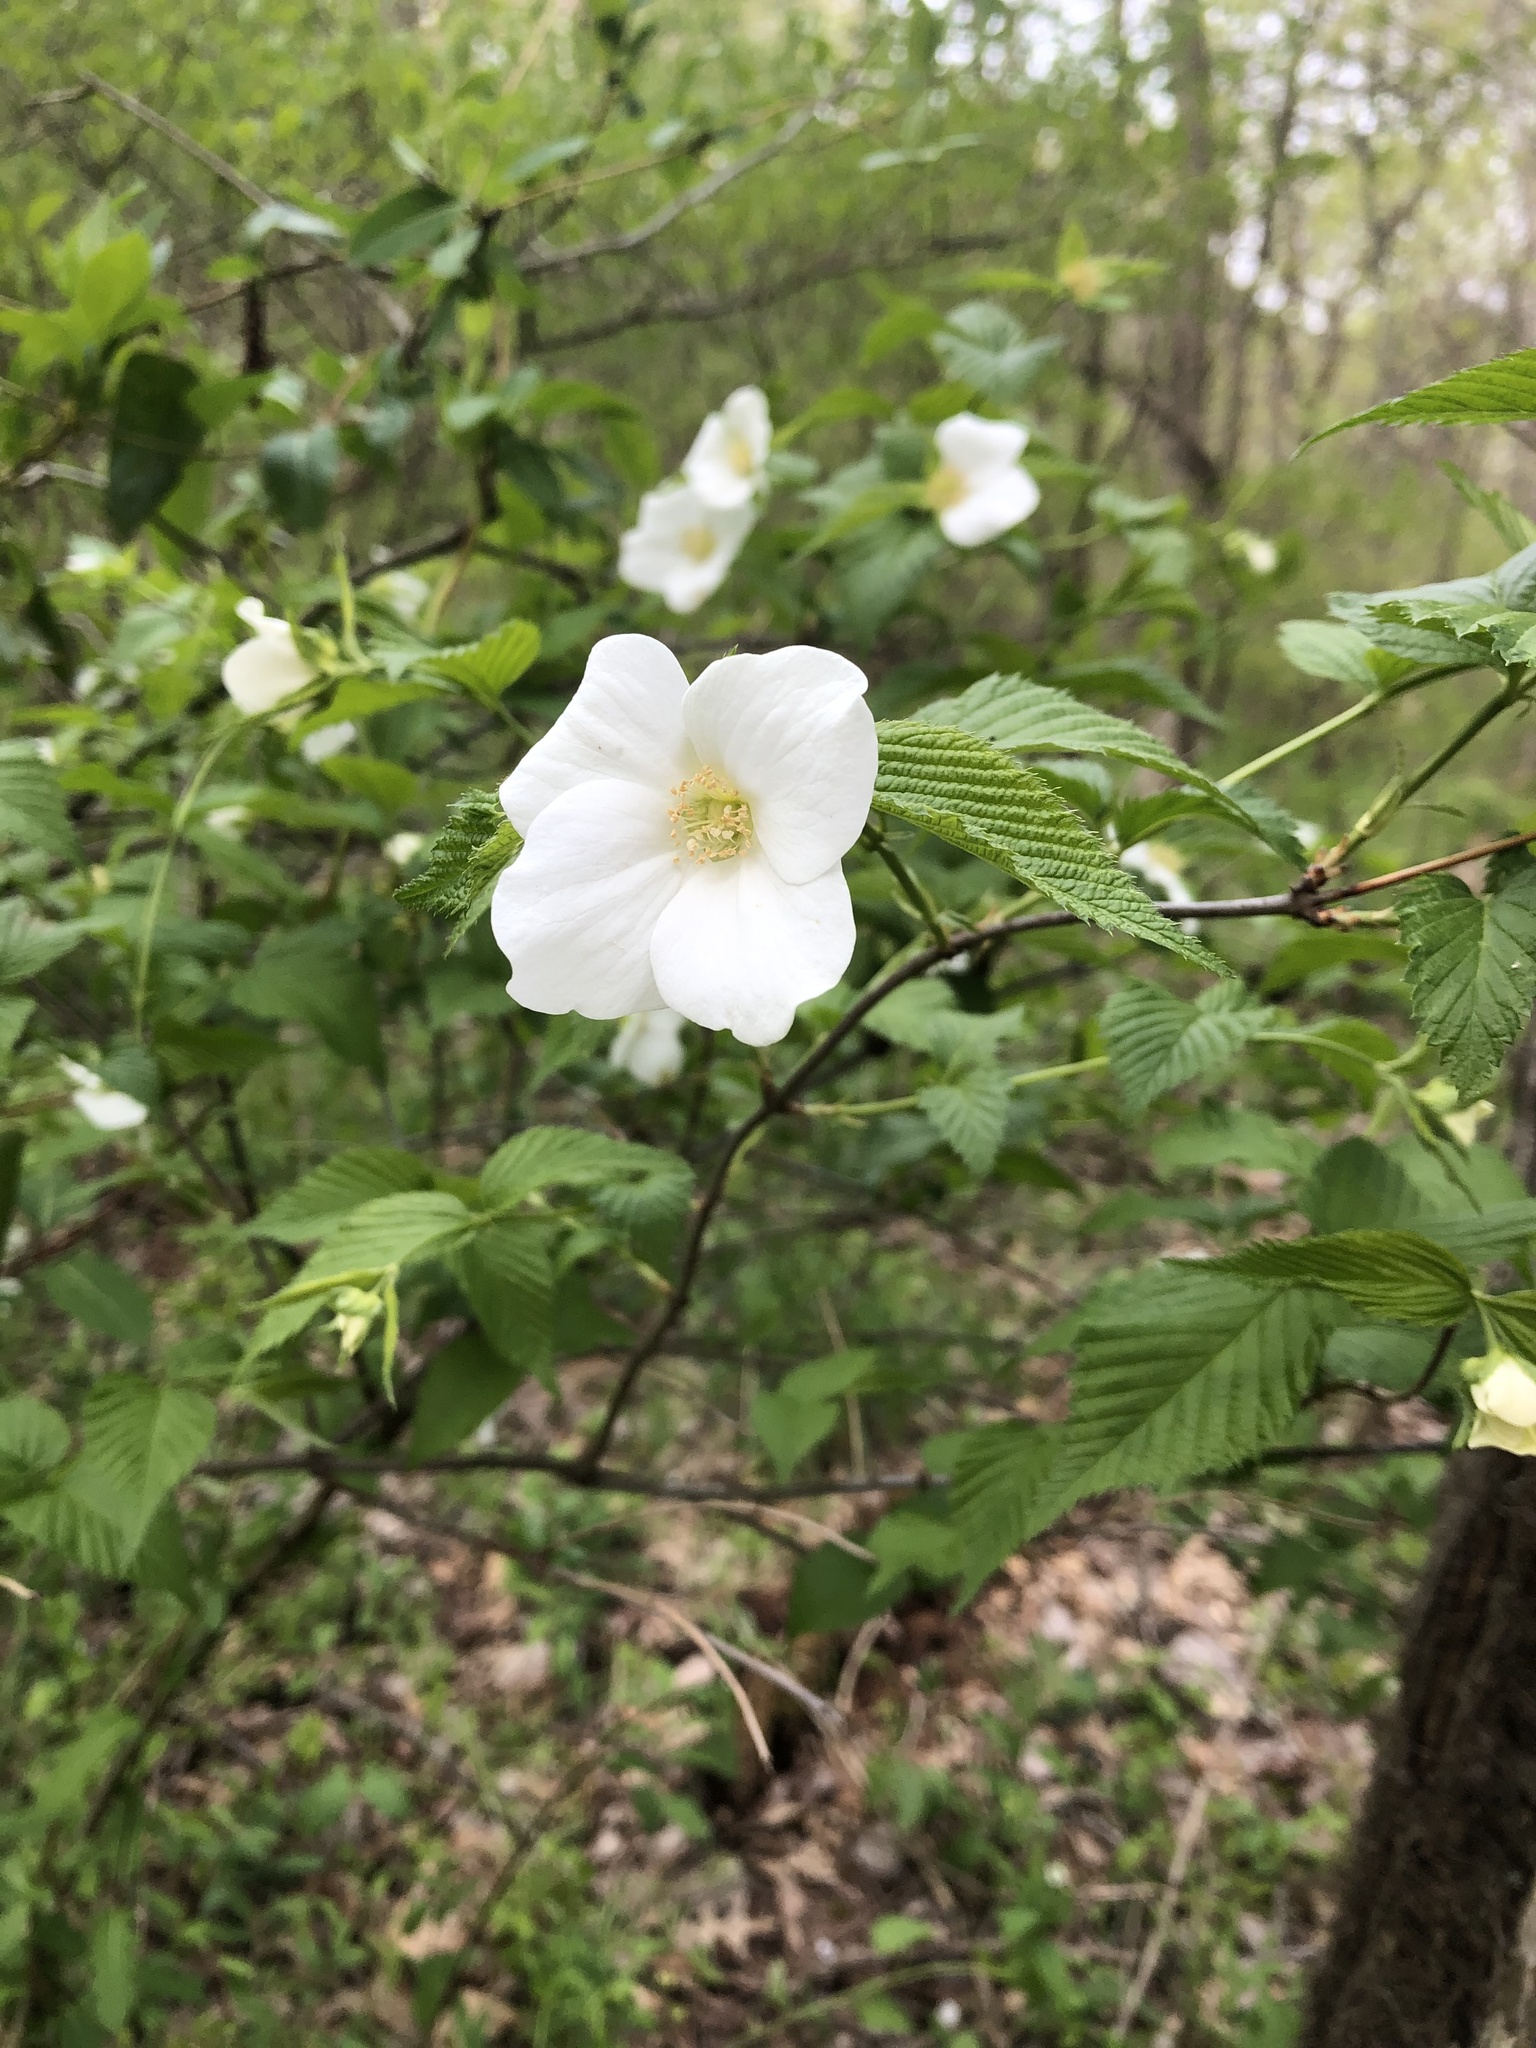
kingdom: Plantae
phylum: Tracheophyta
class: Magnoliopsida
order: Rosales
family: Rosaceae
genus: Rhodotypos
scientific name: Rhodotypos scandens
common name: Jetbead
